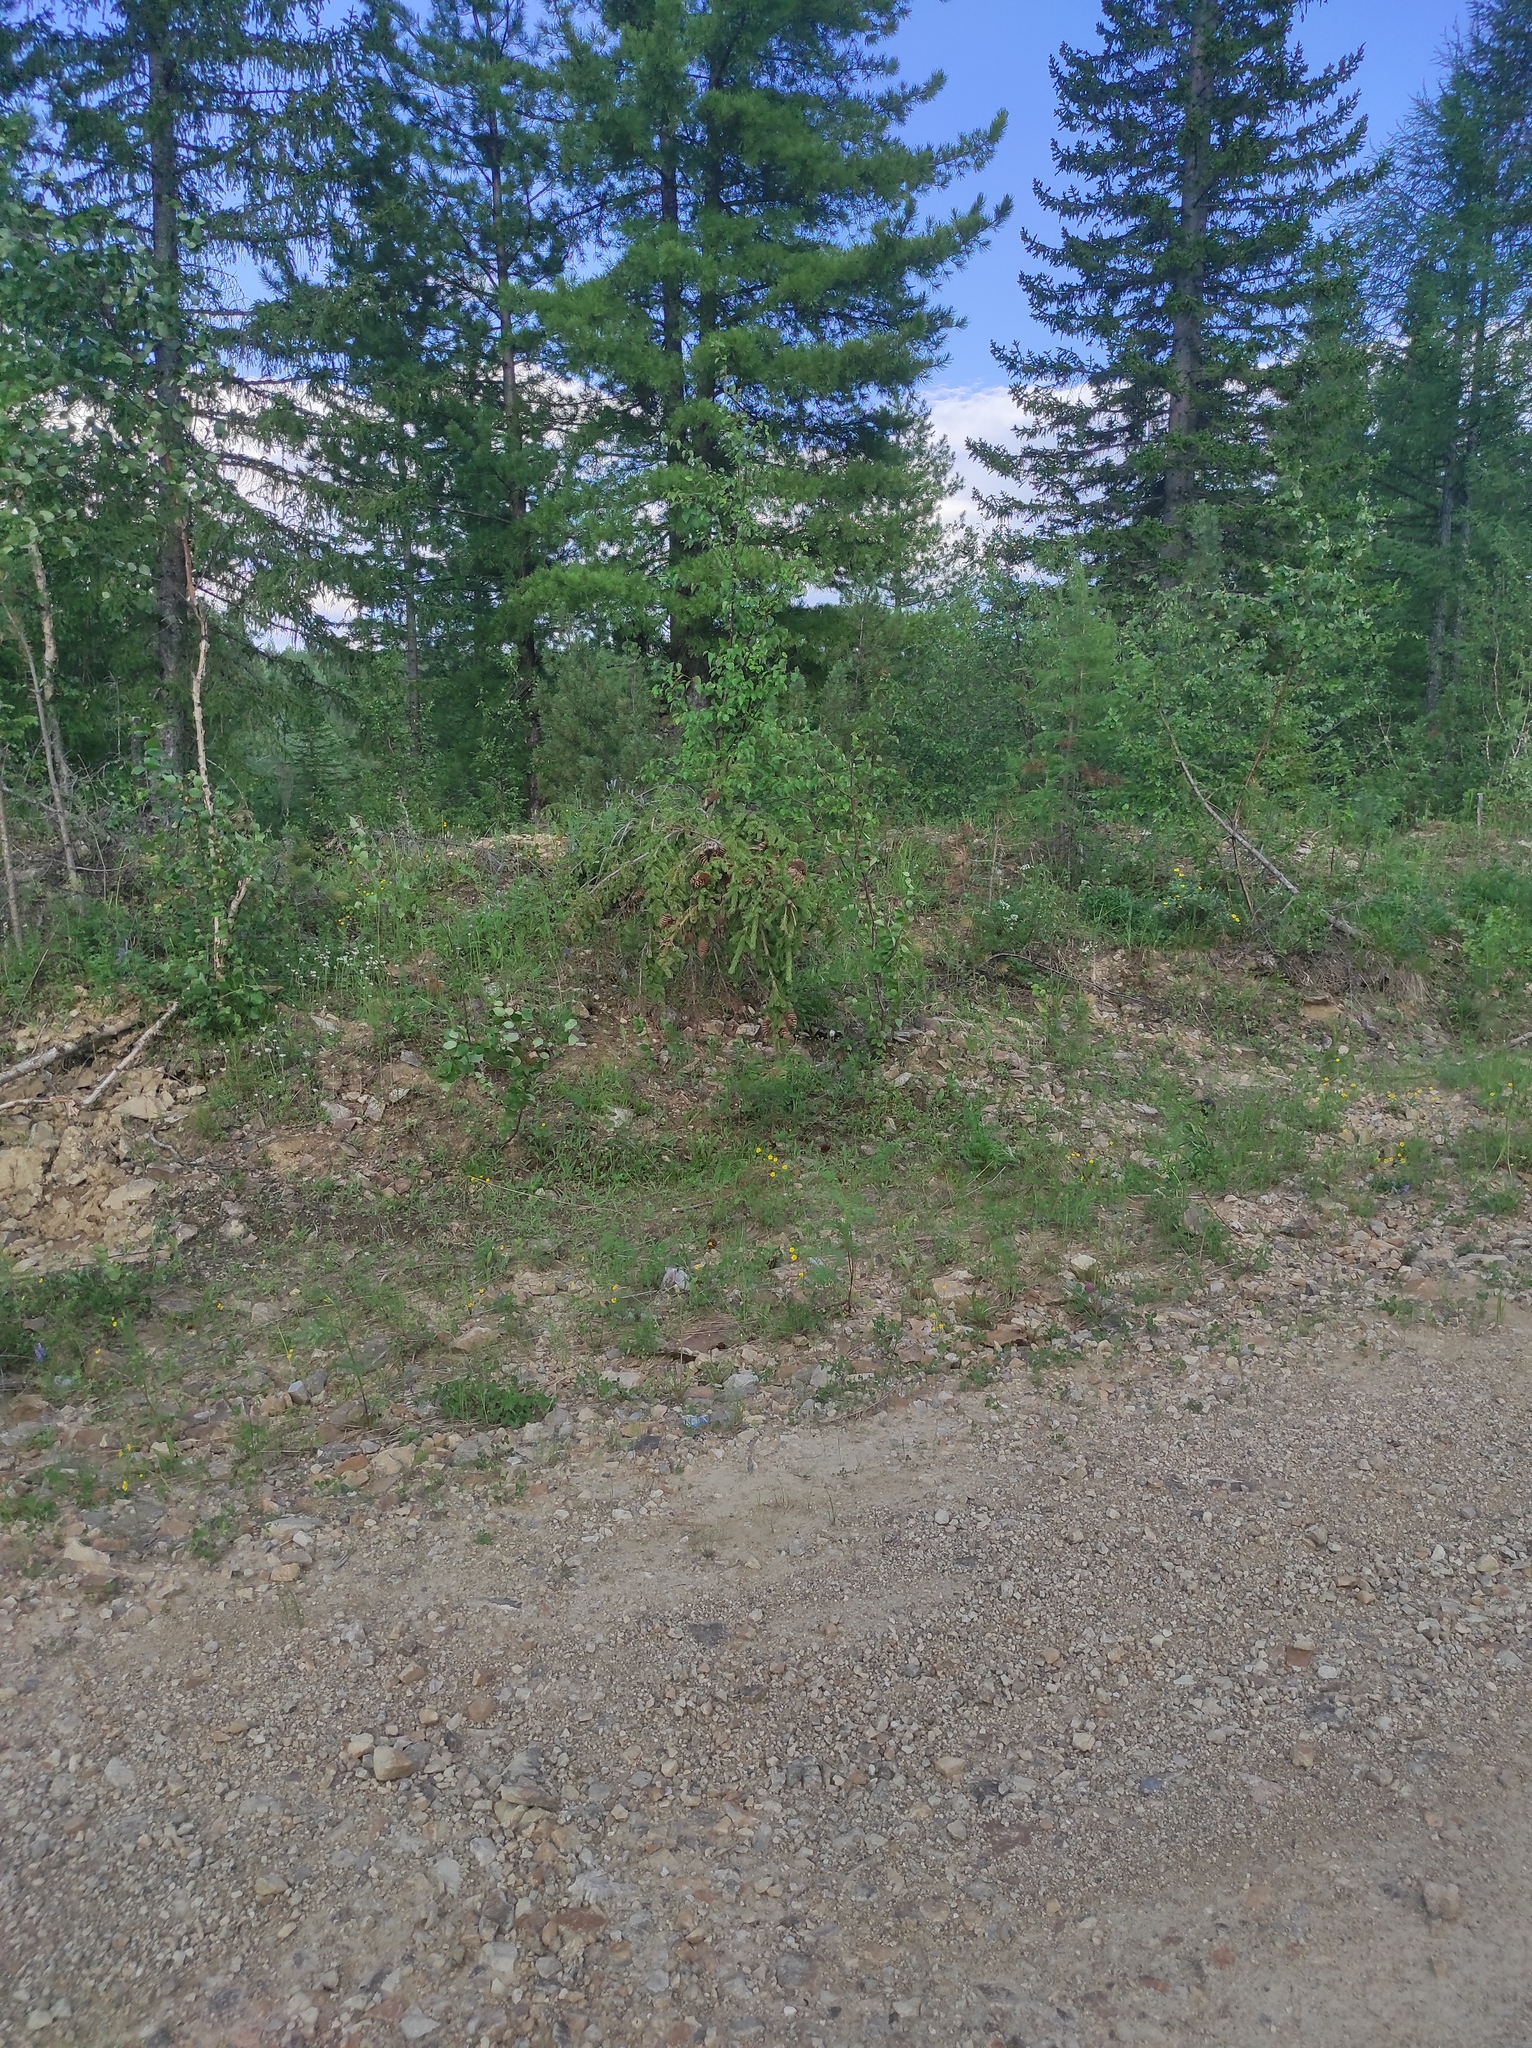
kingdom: Plantae
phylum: Tracheophyta
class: Pinopsida
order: Pinales
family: Pinaceae
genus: Picea
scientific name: Picea obovata
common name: Siberian spruce
